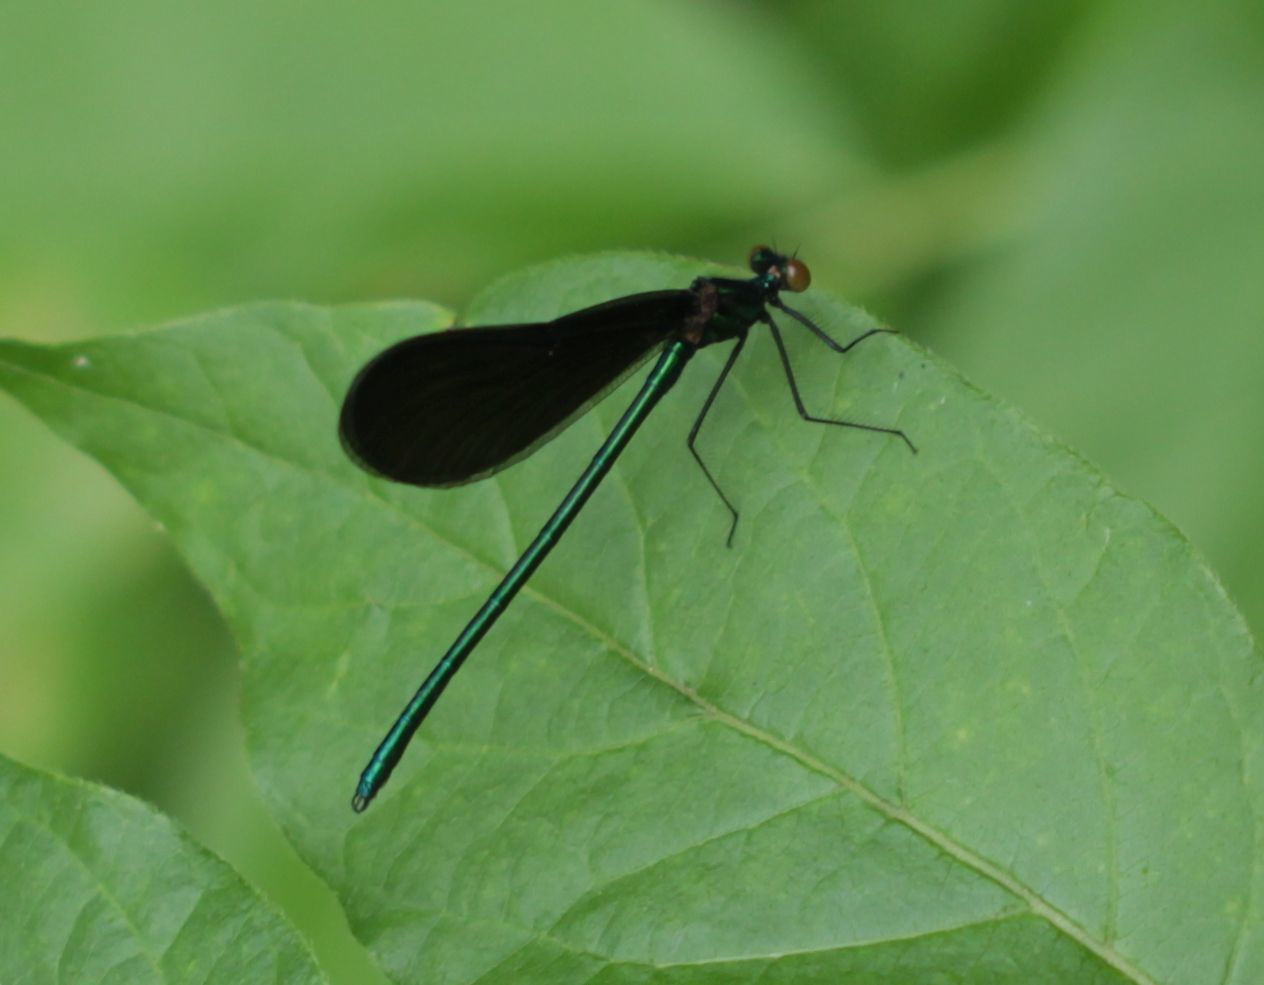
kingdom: Animalia
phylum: Arthropoda
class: Insecta
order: Odonata
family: Calopterygidae
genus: Calopteryx
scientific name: Calopteryx maculata
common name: Ebony jewelwing
